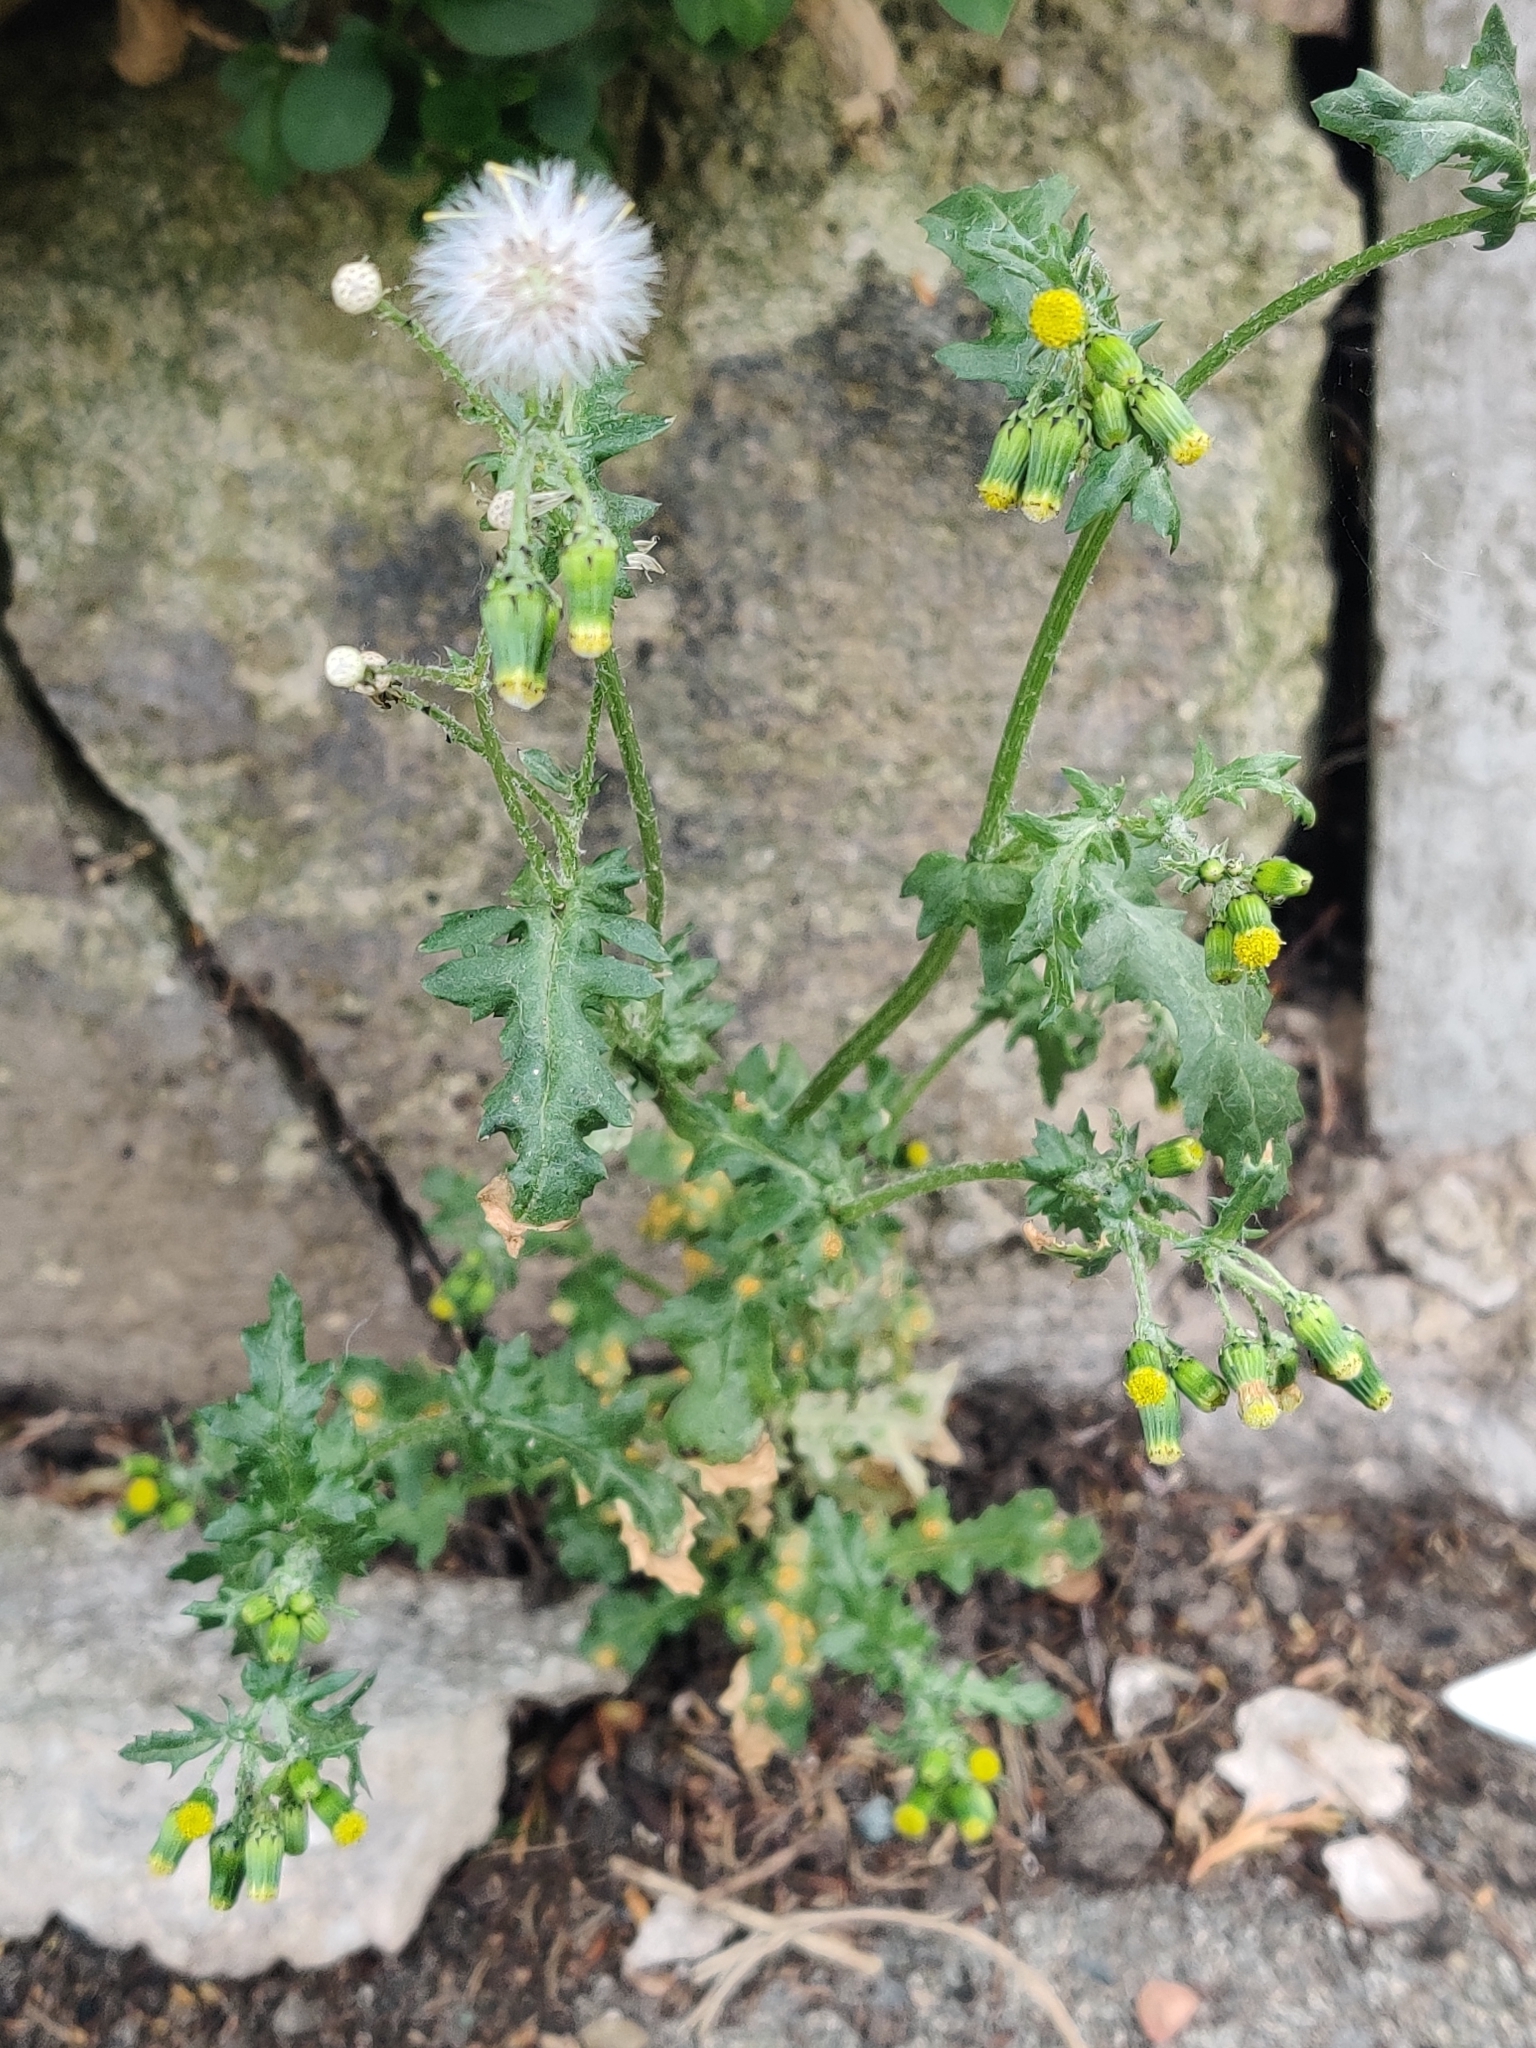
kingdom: Plantae
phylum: Tracheophyta
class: Magnoliopsida
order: Asterales
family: Asteraceae
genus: Senecio
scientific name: Senecio vulgaris
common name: Old-man-in-the-spring
